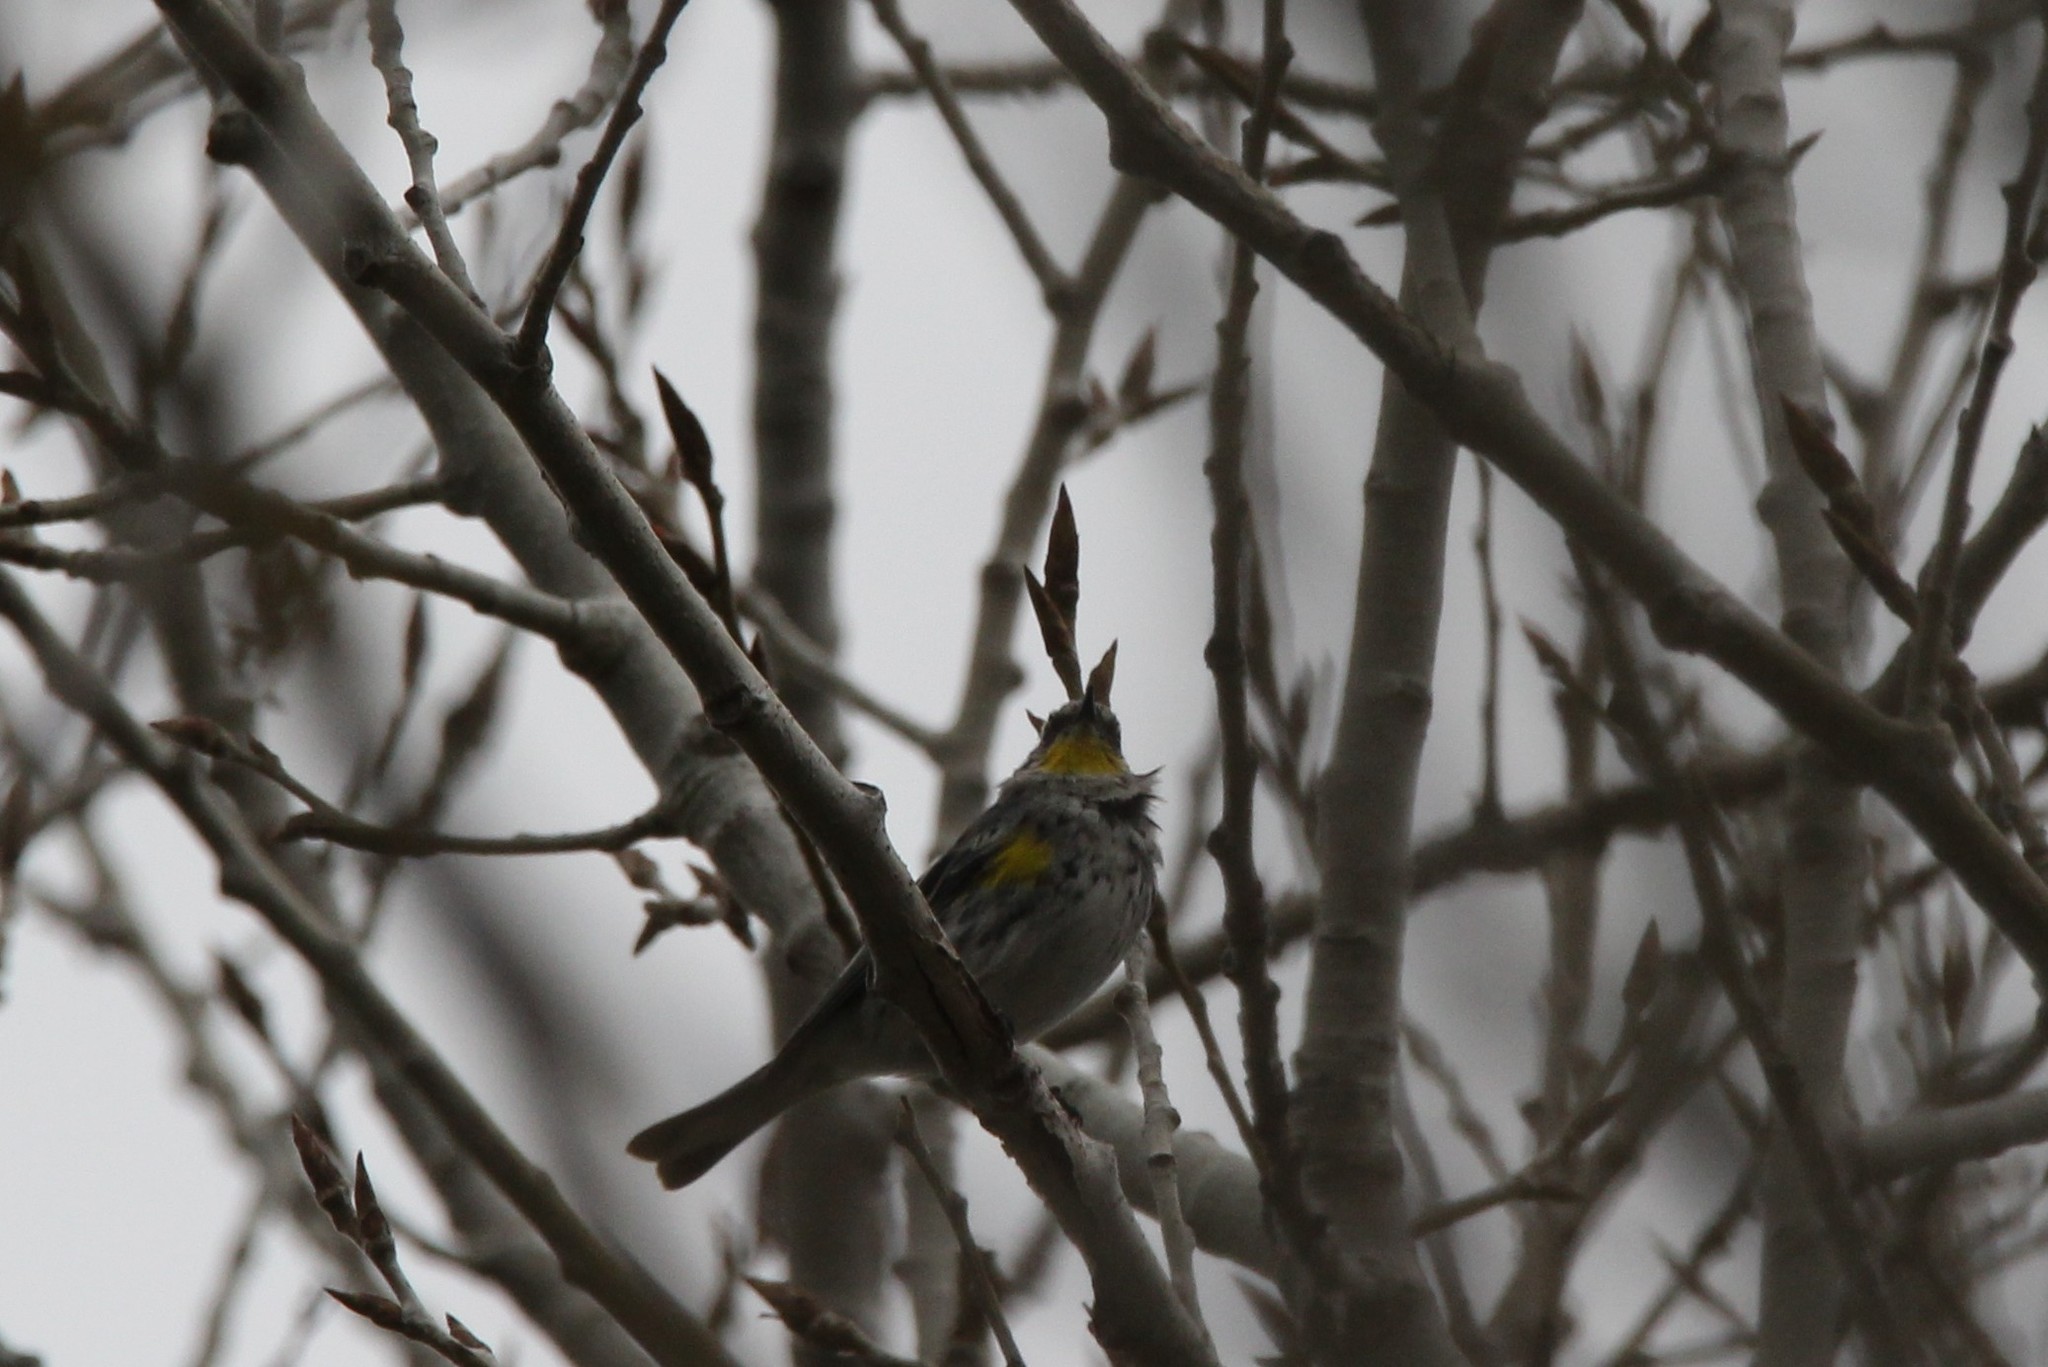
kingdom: Animalia
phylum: Chordata
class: Aves
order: Passeriformes
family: Parulidae
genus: Setophaga
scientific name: Setophaga coronata
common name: Myrtle warbler
